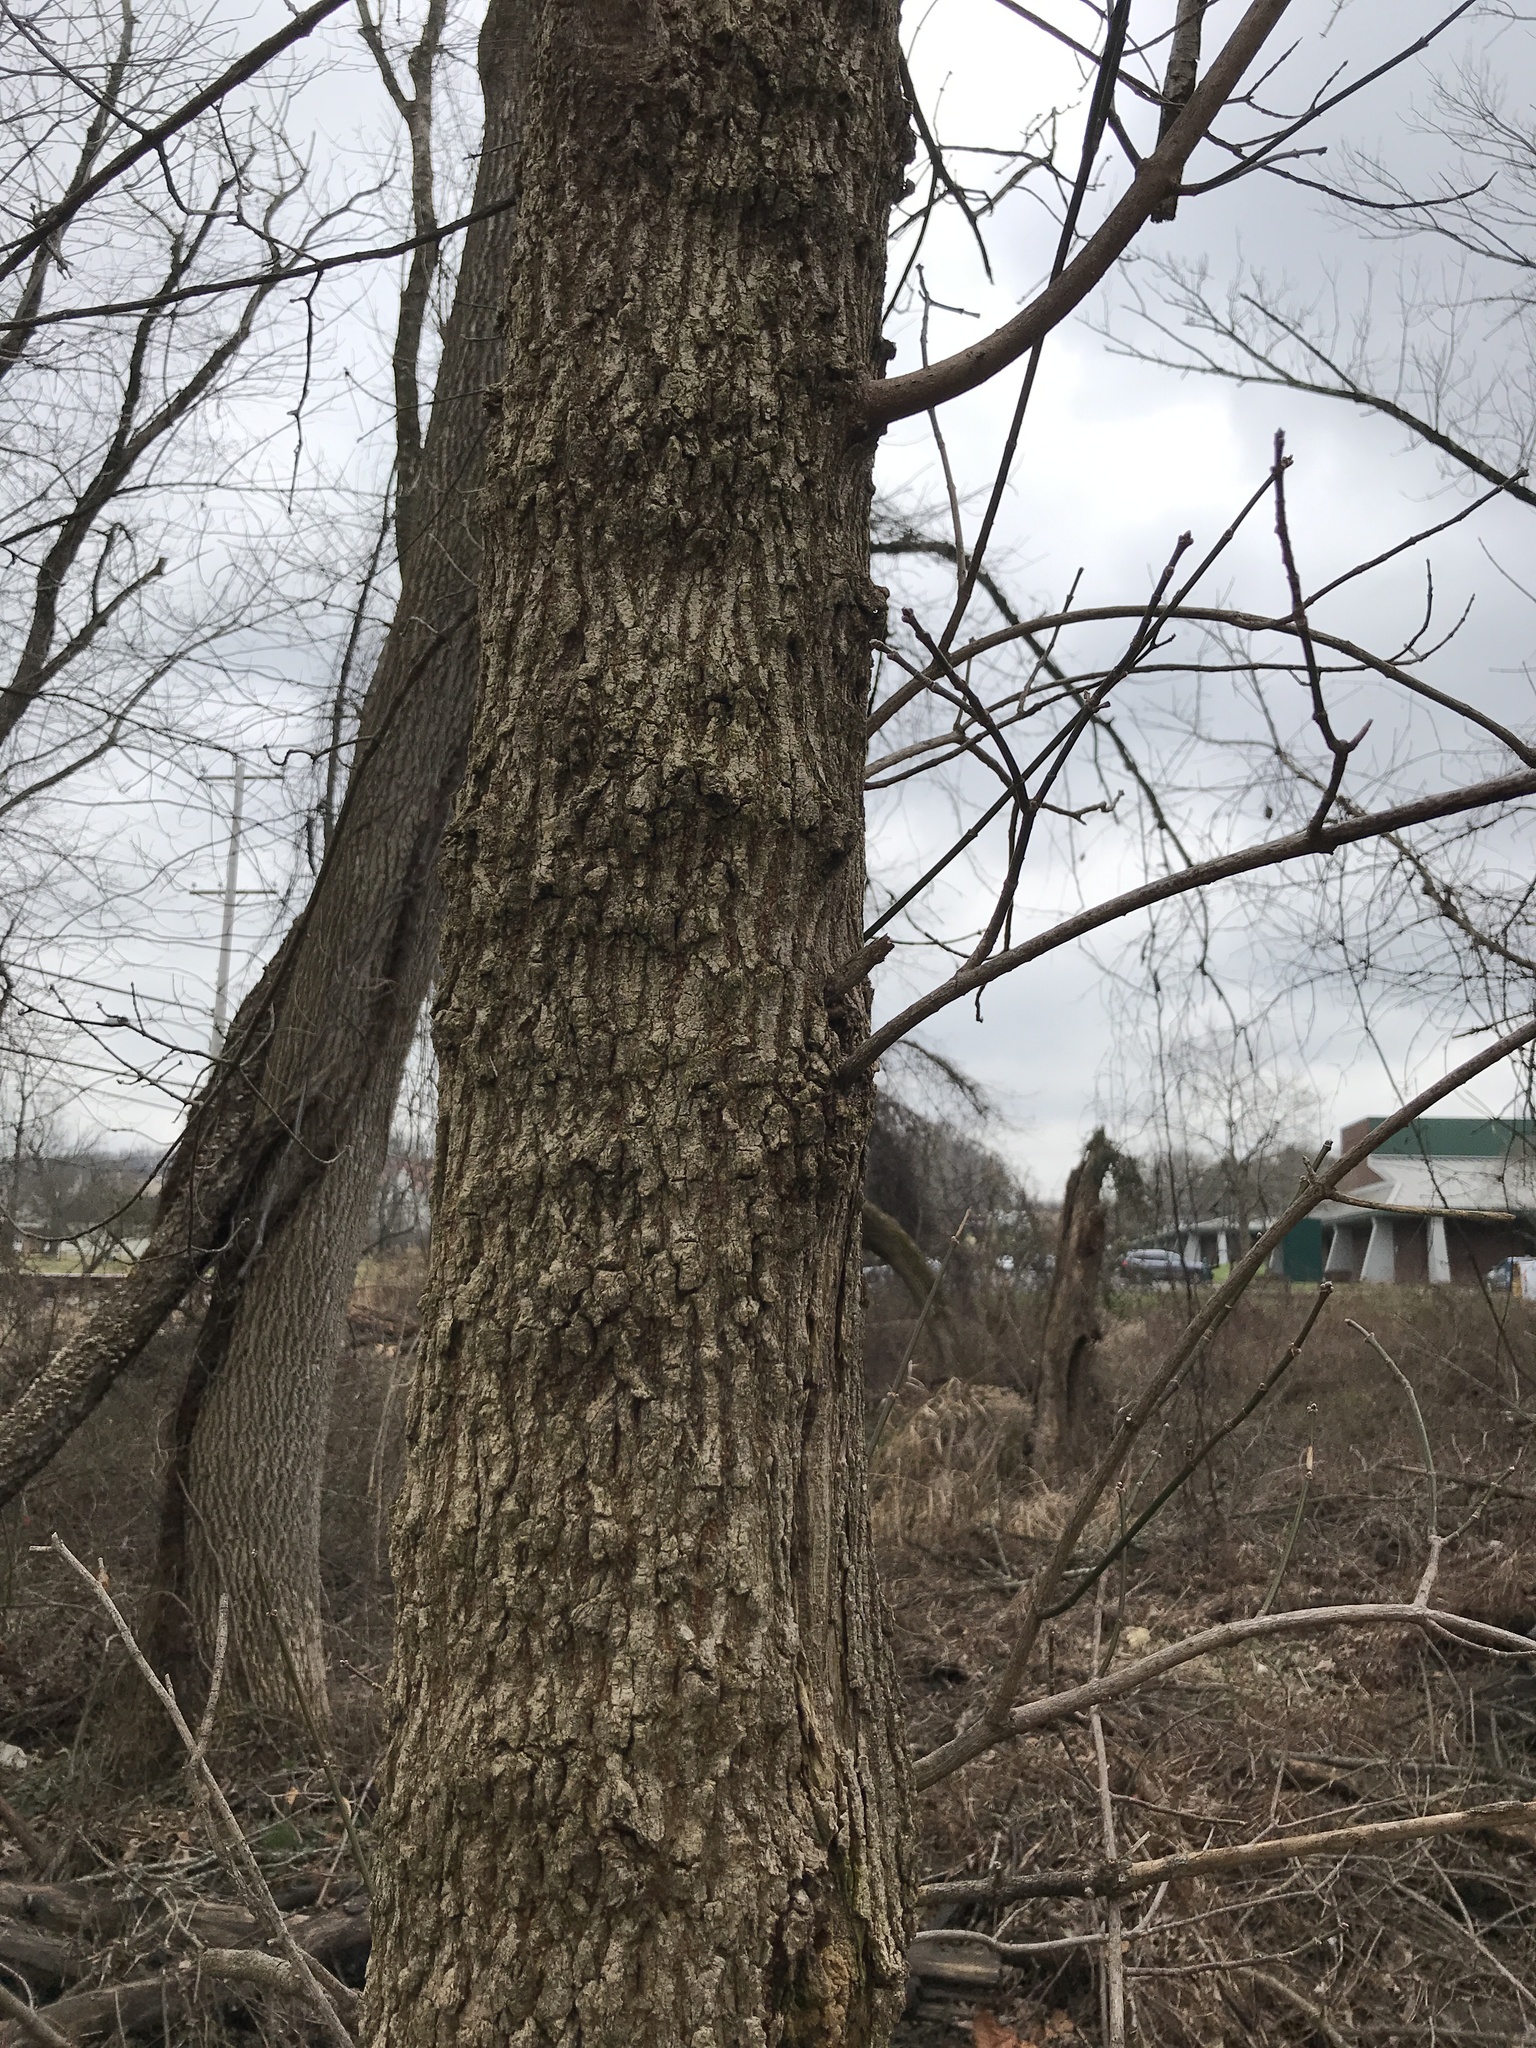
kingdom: Plantae
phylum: Tracheophyta
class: Magnoliopsida
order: Sapindales
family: Sapindaceae
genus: Acer
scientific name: Acer negundo
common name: Ashleaf maple
